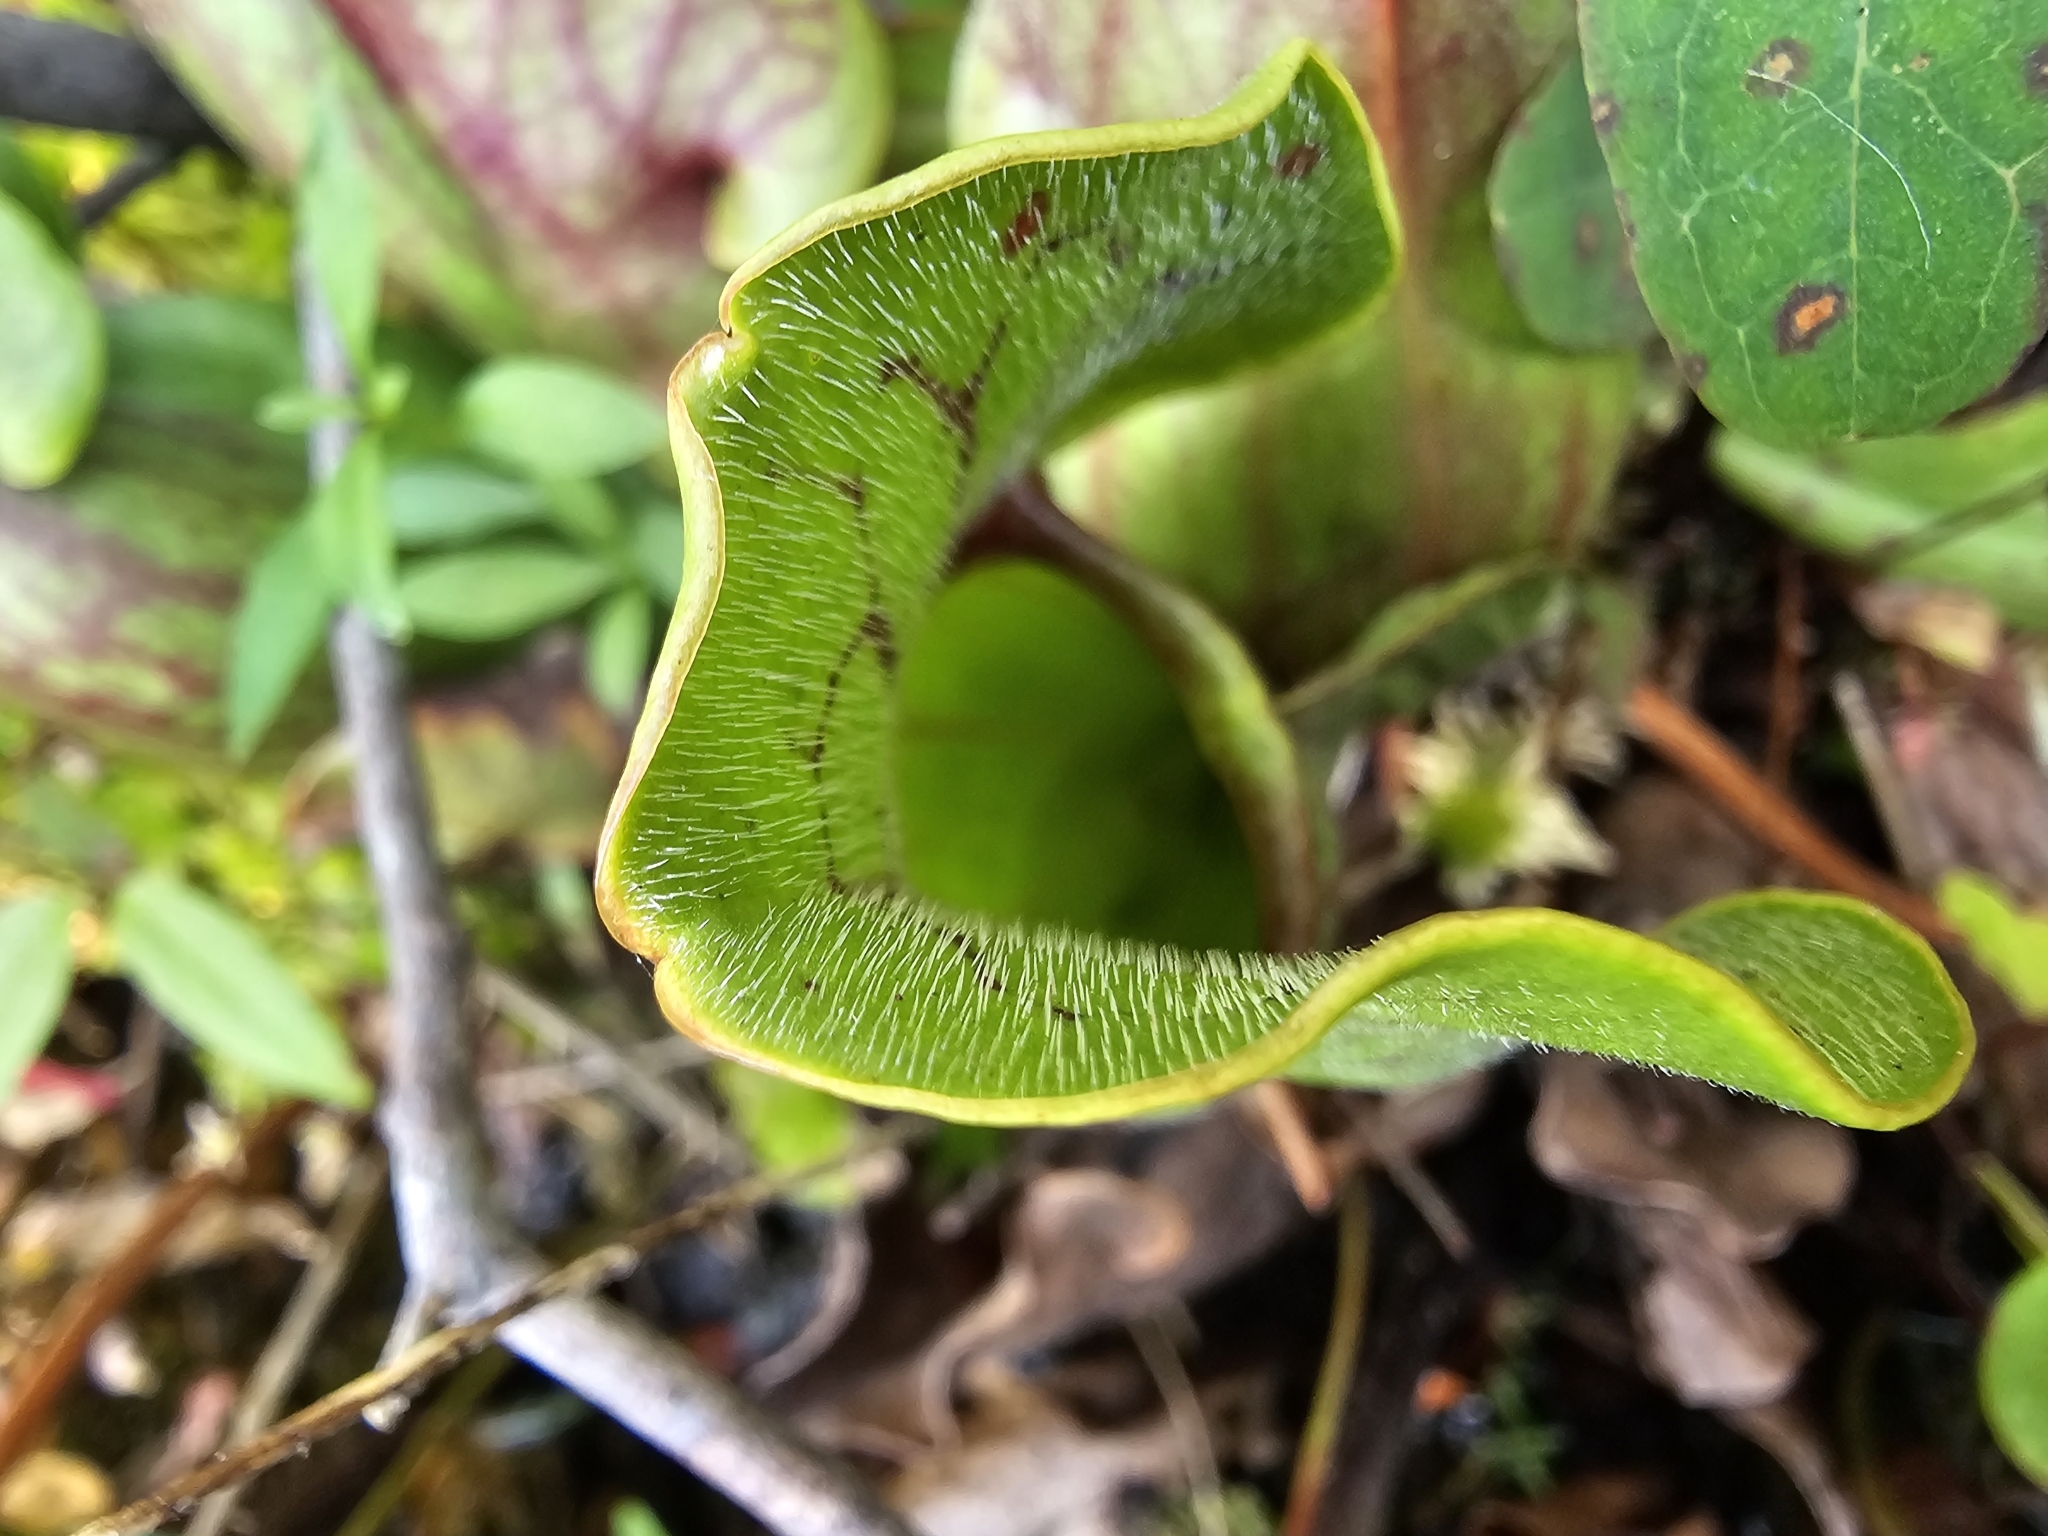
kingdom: Plantae
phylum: Tracheophyta
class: Magnoliopsida
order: Ericales
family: Sarraceniaceae
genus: Sarracenia
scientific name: Sarracenia purpurea
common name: Pitcherplant
